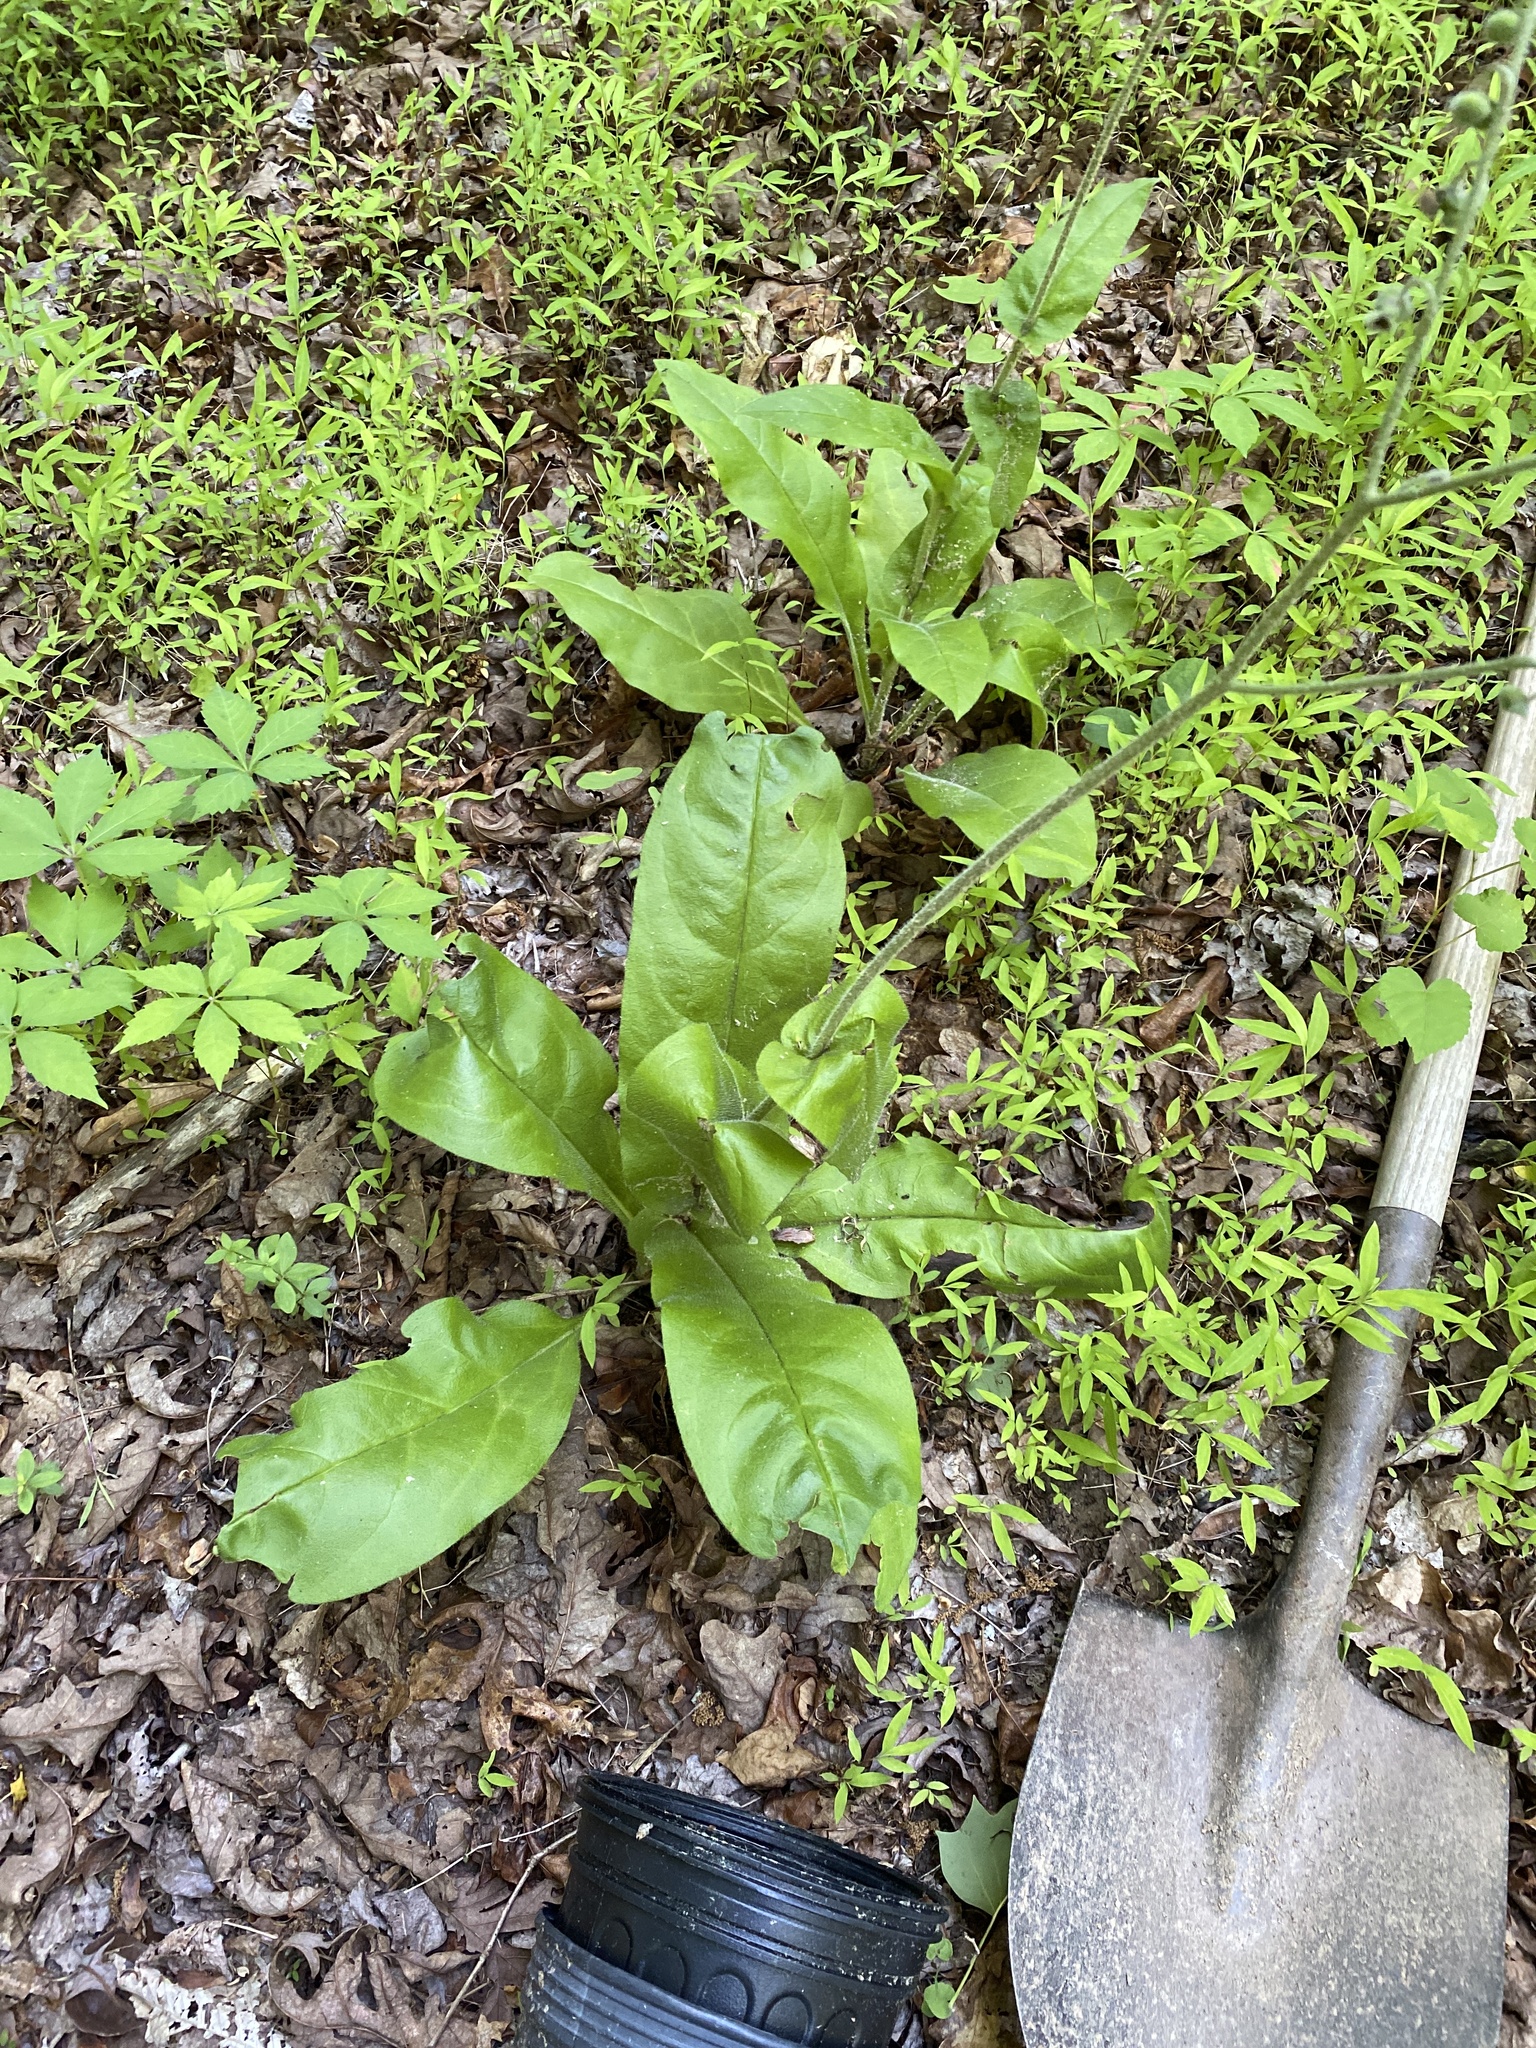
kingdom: Plantae
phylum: Tracheophyta
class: Magnoliopsida
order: Boraginales
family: Boraginaceae
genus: Andersonglossum
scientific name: Andersonglossum virginianum
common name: Wild comfrey
